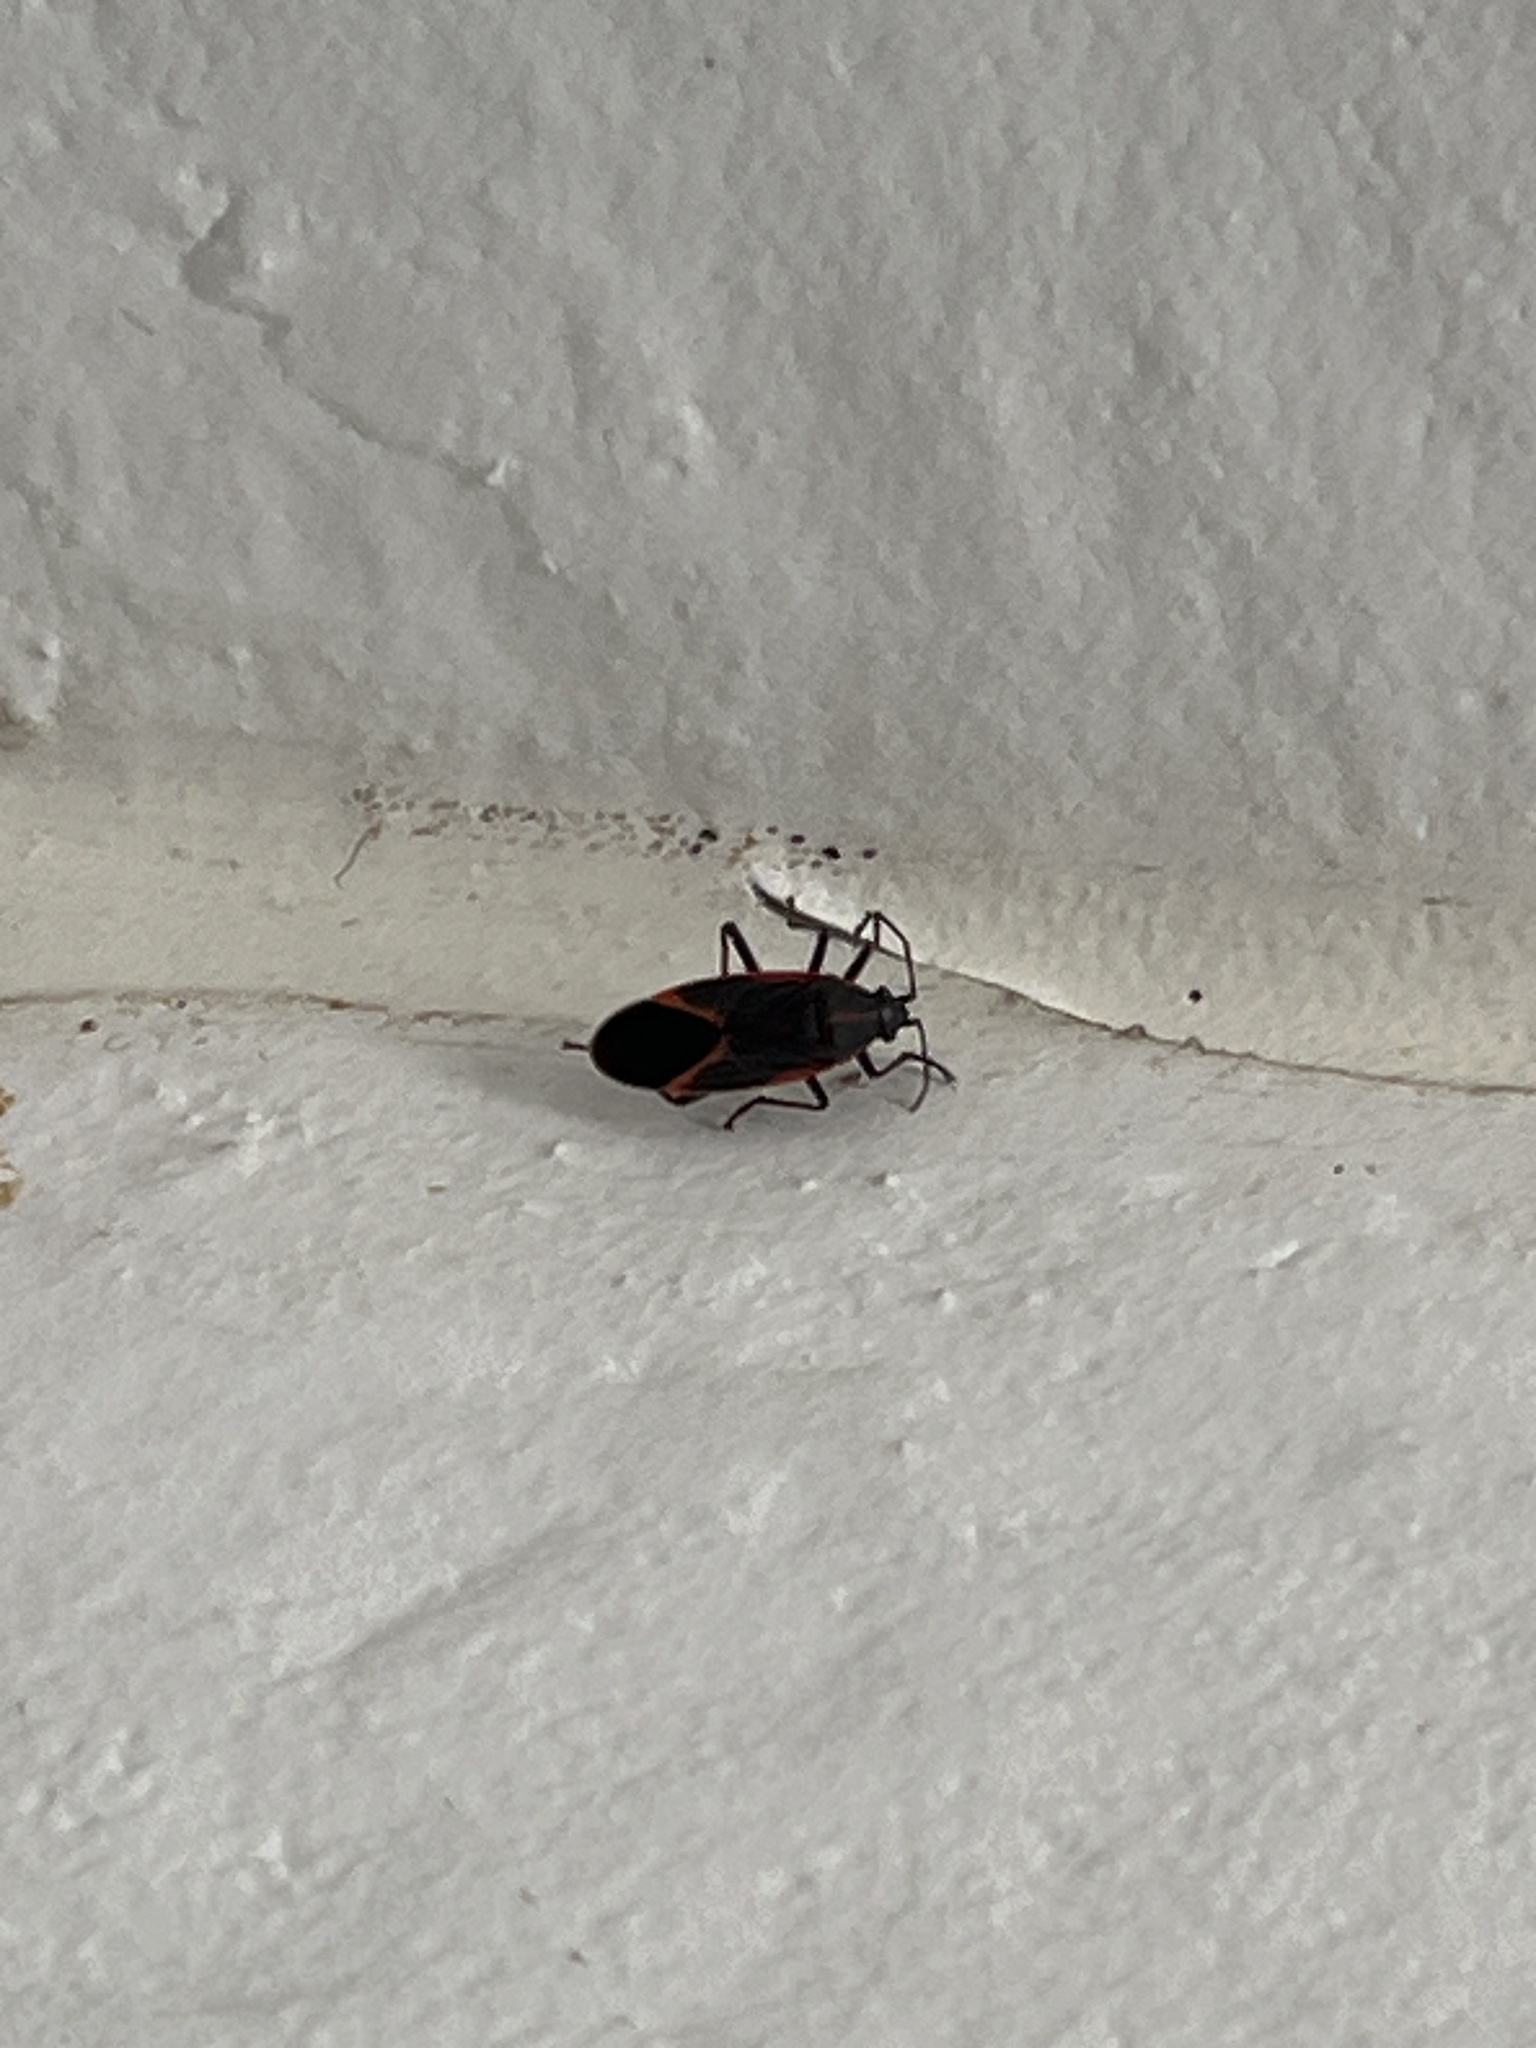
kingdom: Animalia
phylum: Arthropoda
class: Insecta
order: Hemiptera
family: Rhopalidae
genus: Boisea
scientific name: Boisea trivittata
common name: Boxelder bug
